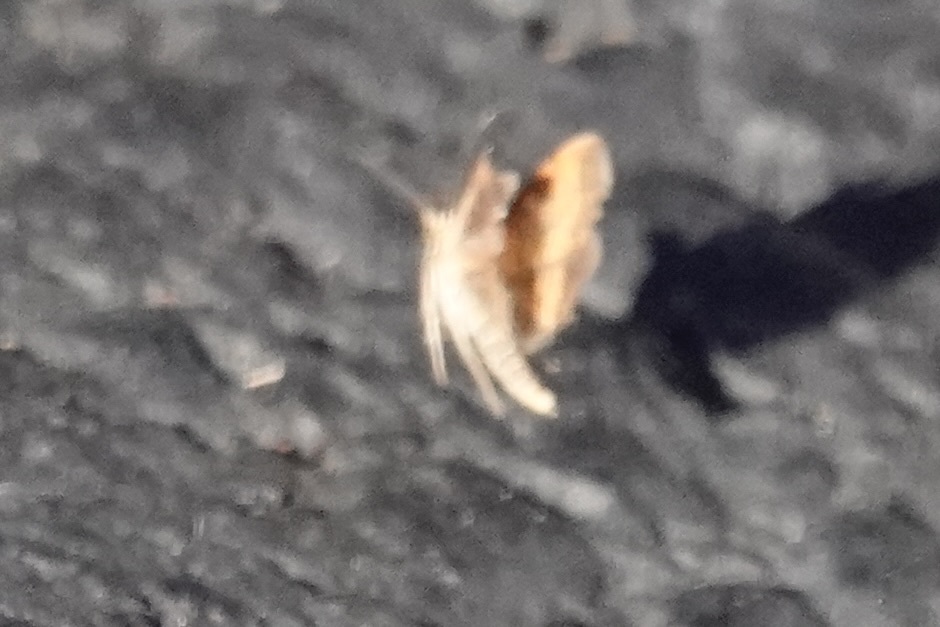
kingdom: Animalia
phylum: Arthropoda
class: Insecta
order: Lepidoptera
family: Crambidae
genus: Pyrausta
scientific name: Pyrausta rubricalis
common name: Variable reddish pyrausta
